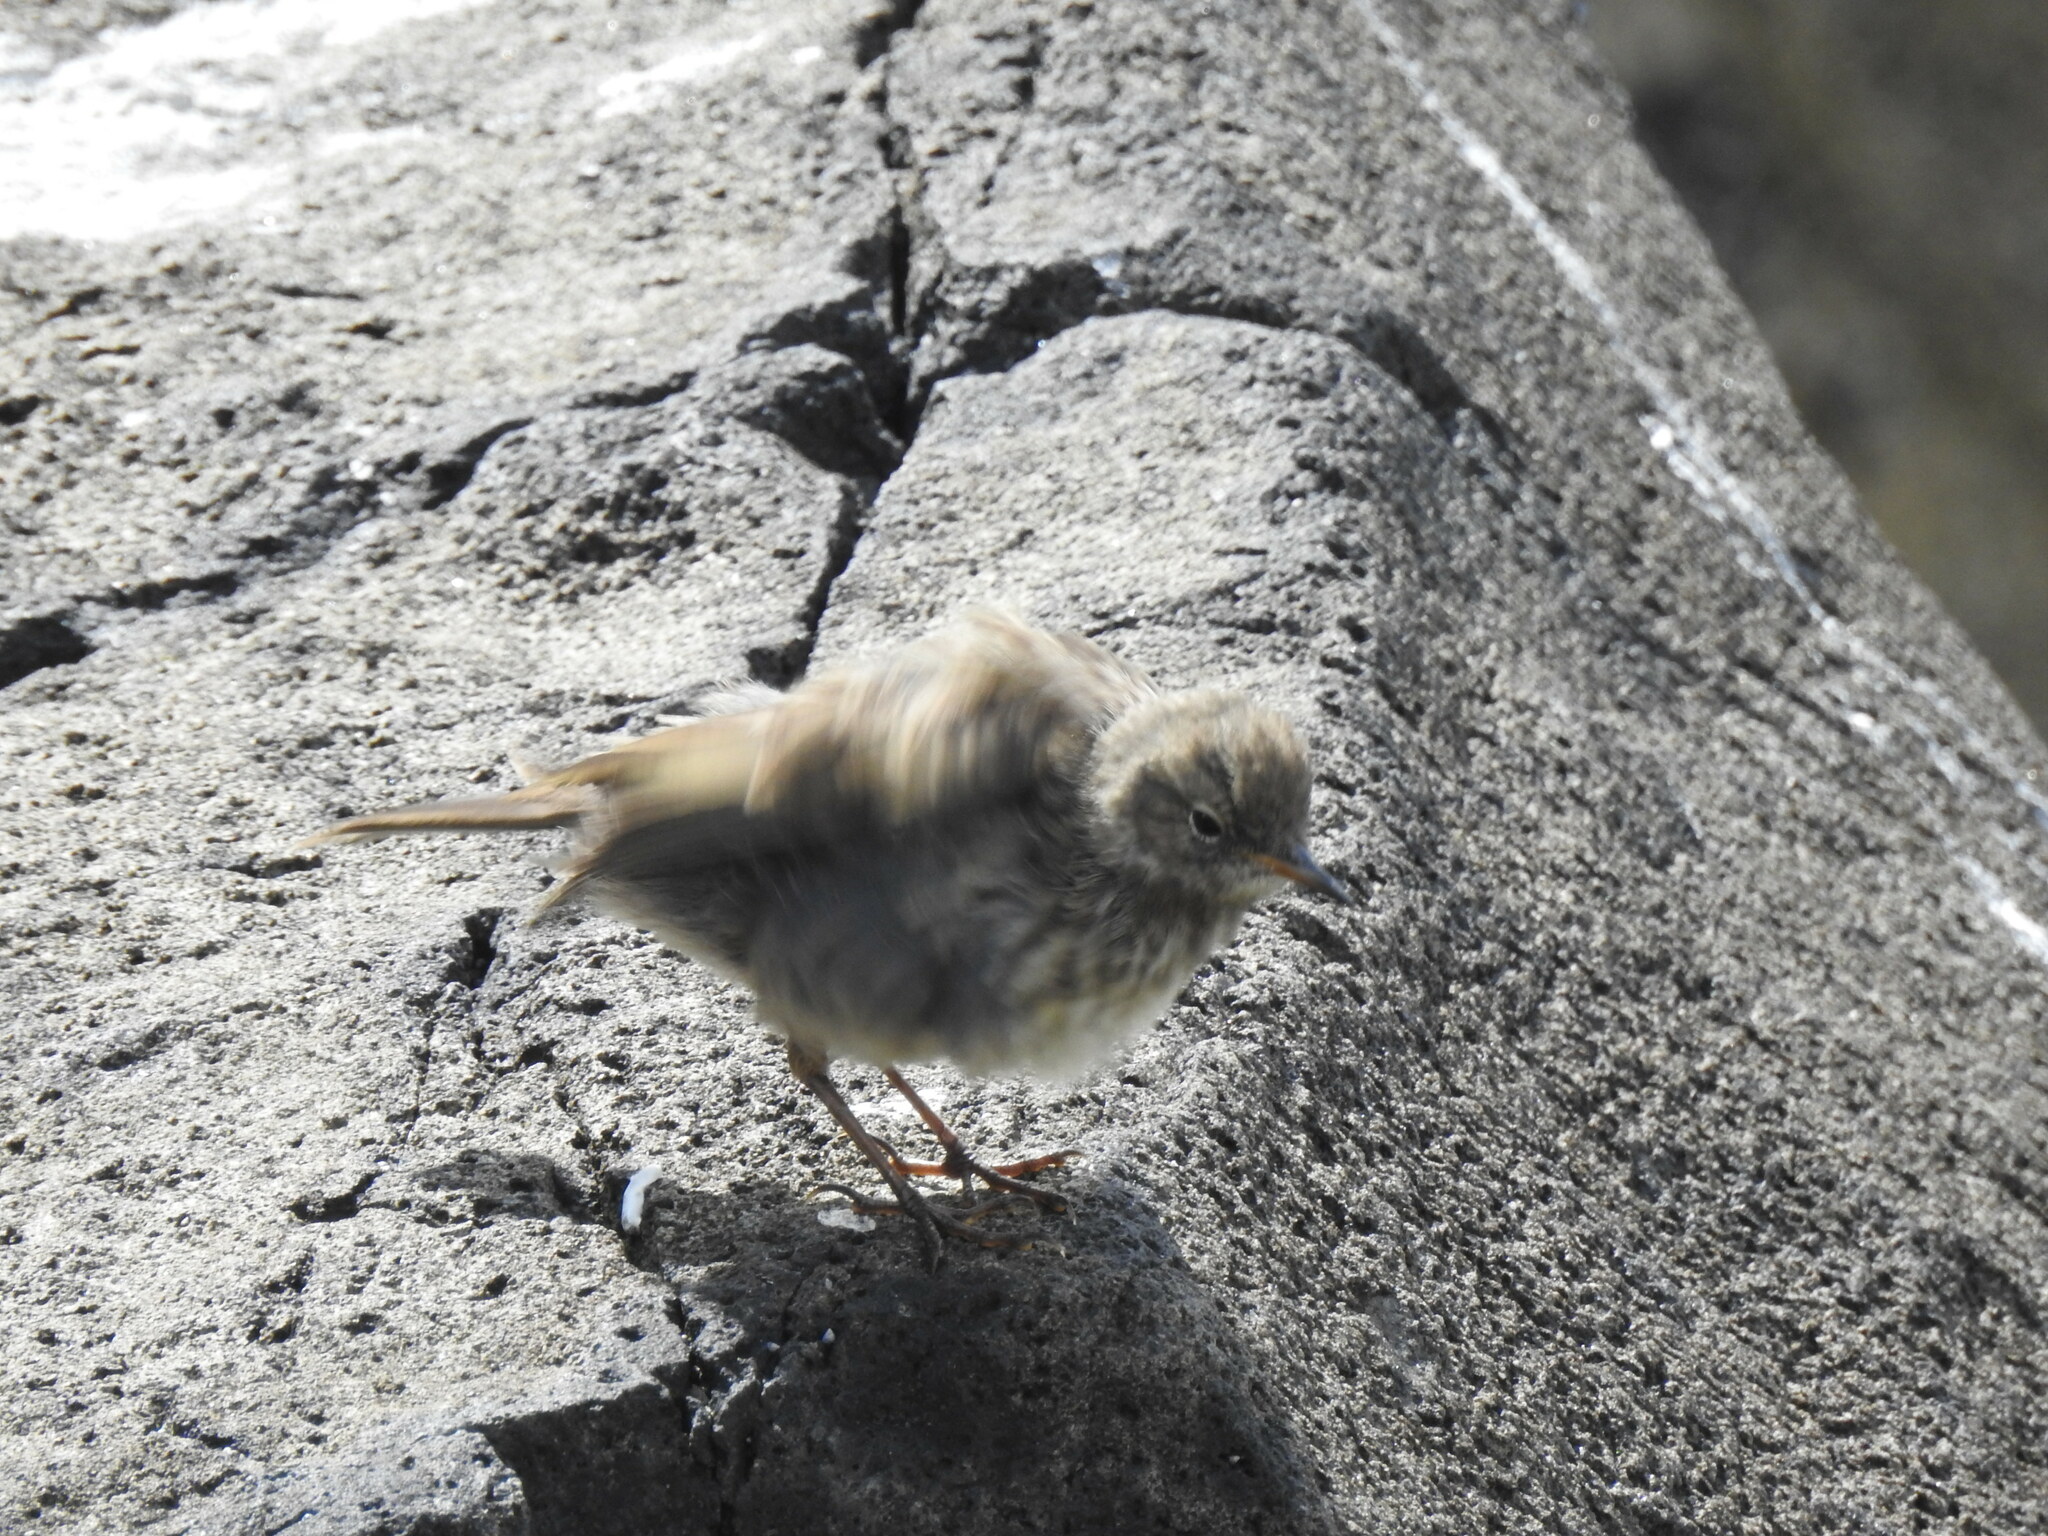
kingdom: Animalia
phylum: Chordata
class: Aves
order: Passeriformes
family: Motacillidae
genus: Anthus
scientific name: Anthus petrosus
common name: Eurasian rock pipit
